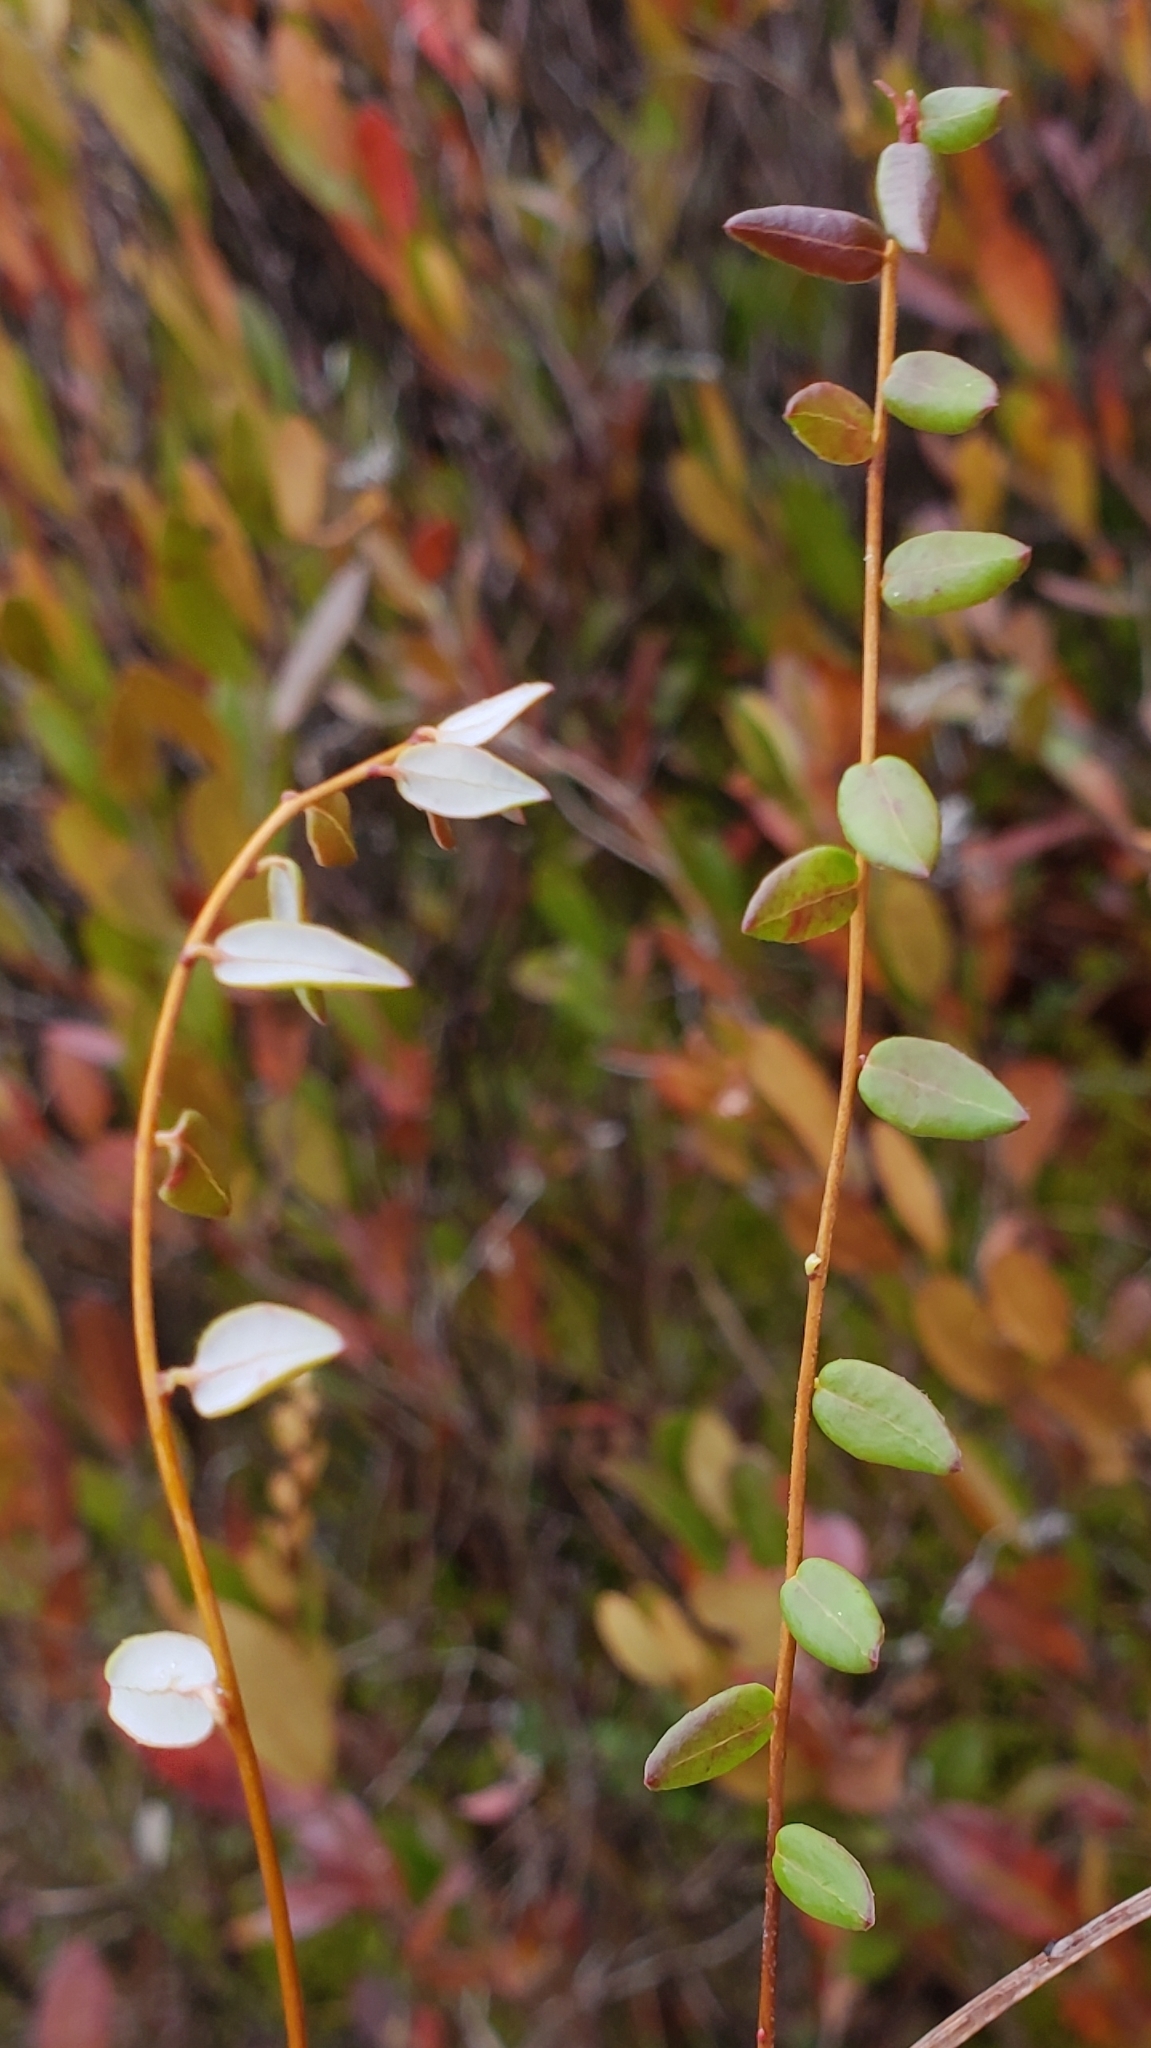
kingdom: Plantae
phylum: Tracheophyta
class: Magnoliopsida
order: Ericales
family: Ericaceae
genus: Vaccinium
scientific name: Vaccinium oxycoccos
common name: Cranberry
